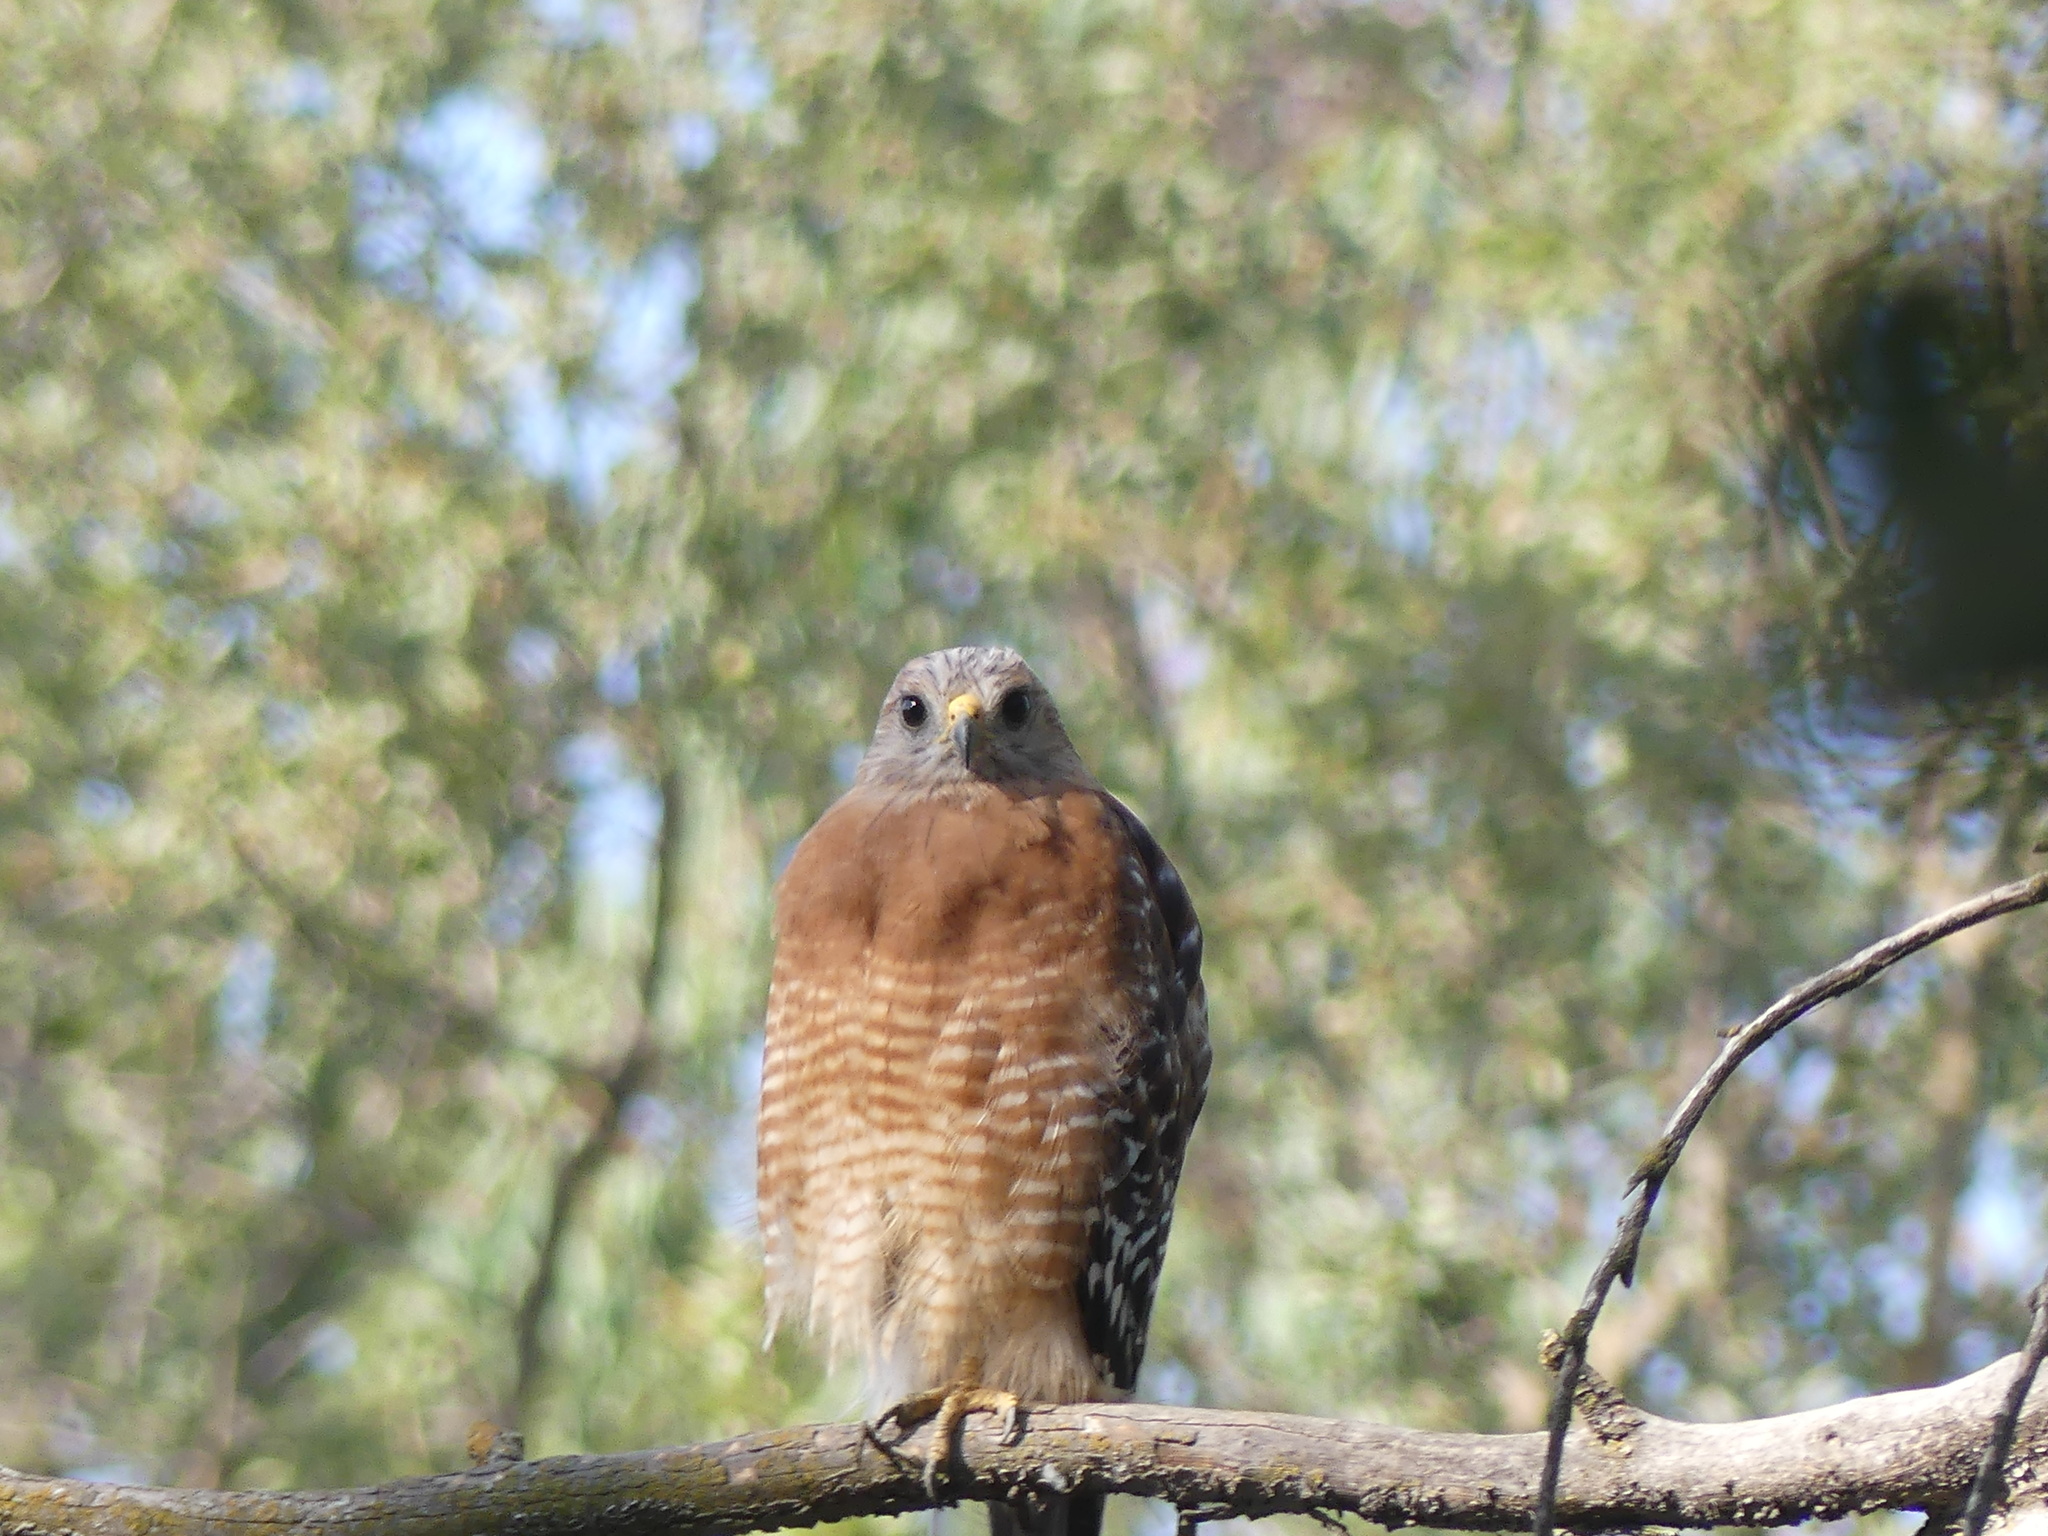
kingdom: Animalia
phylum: Chordata
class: Aves
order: Accipitriformes
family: Accipitridae
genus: Buteo
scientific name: Buteo lineatus
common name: Red-shouldered hawk
